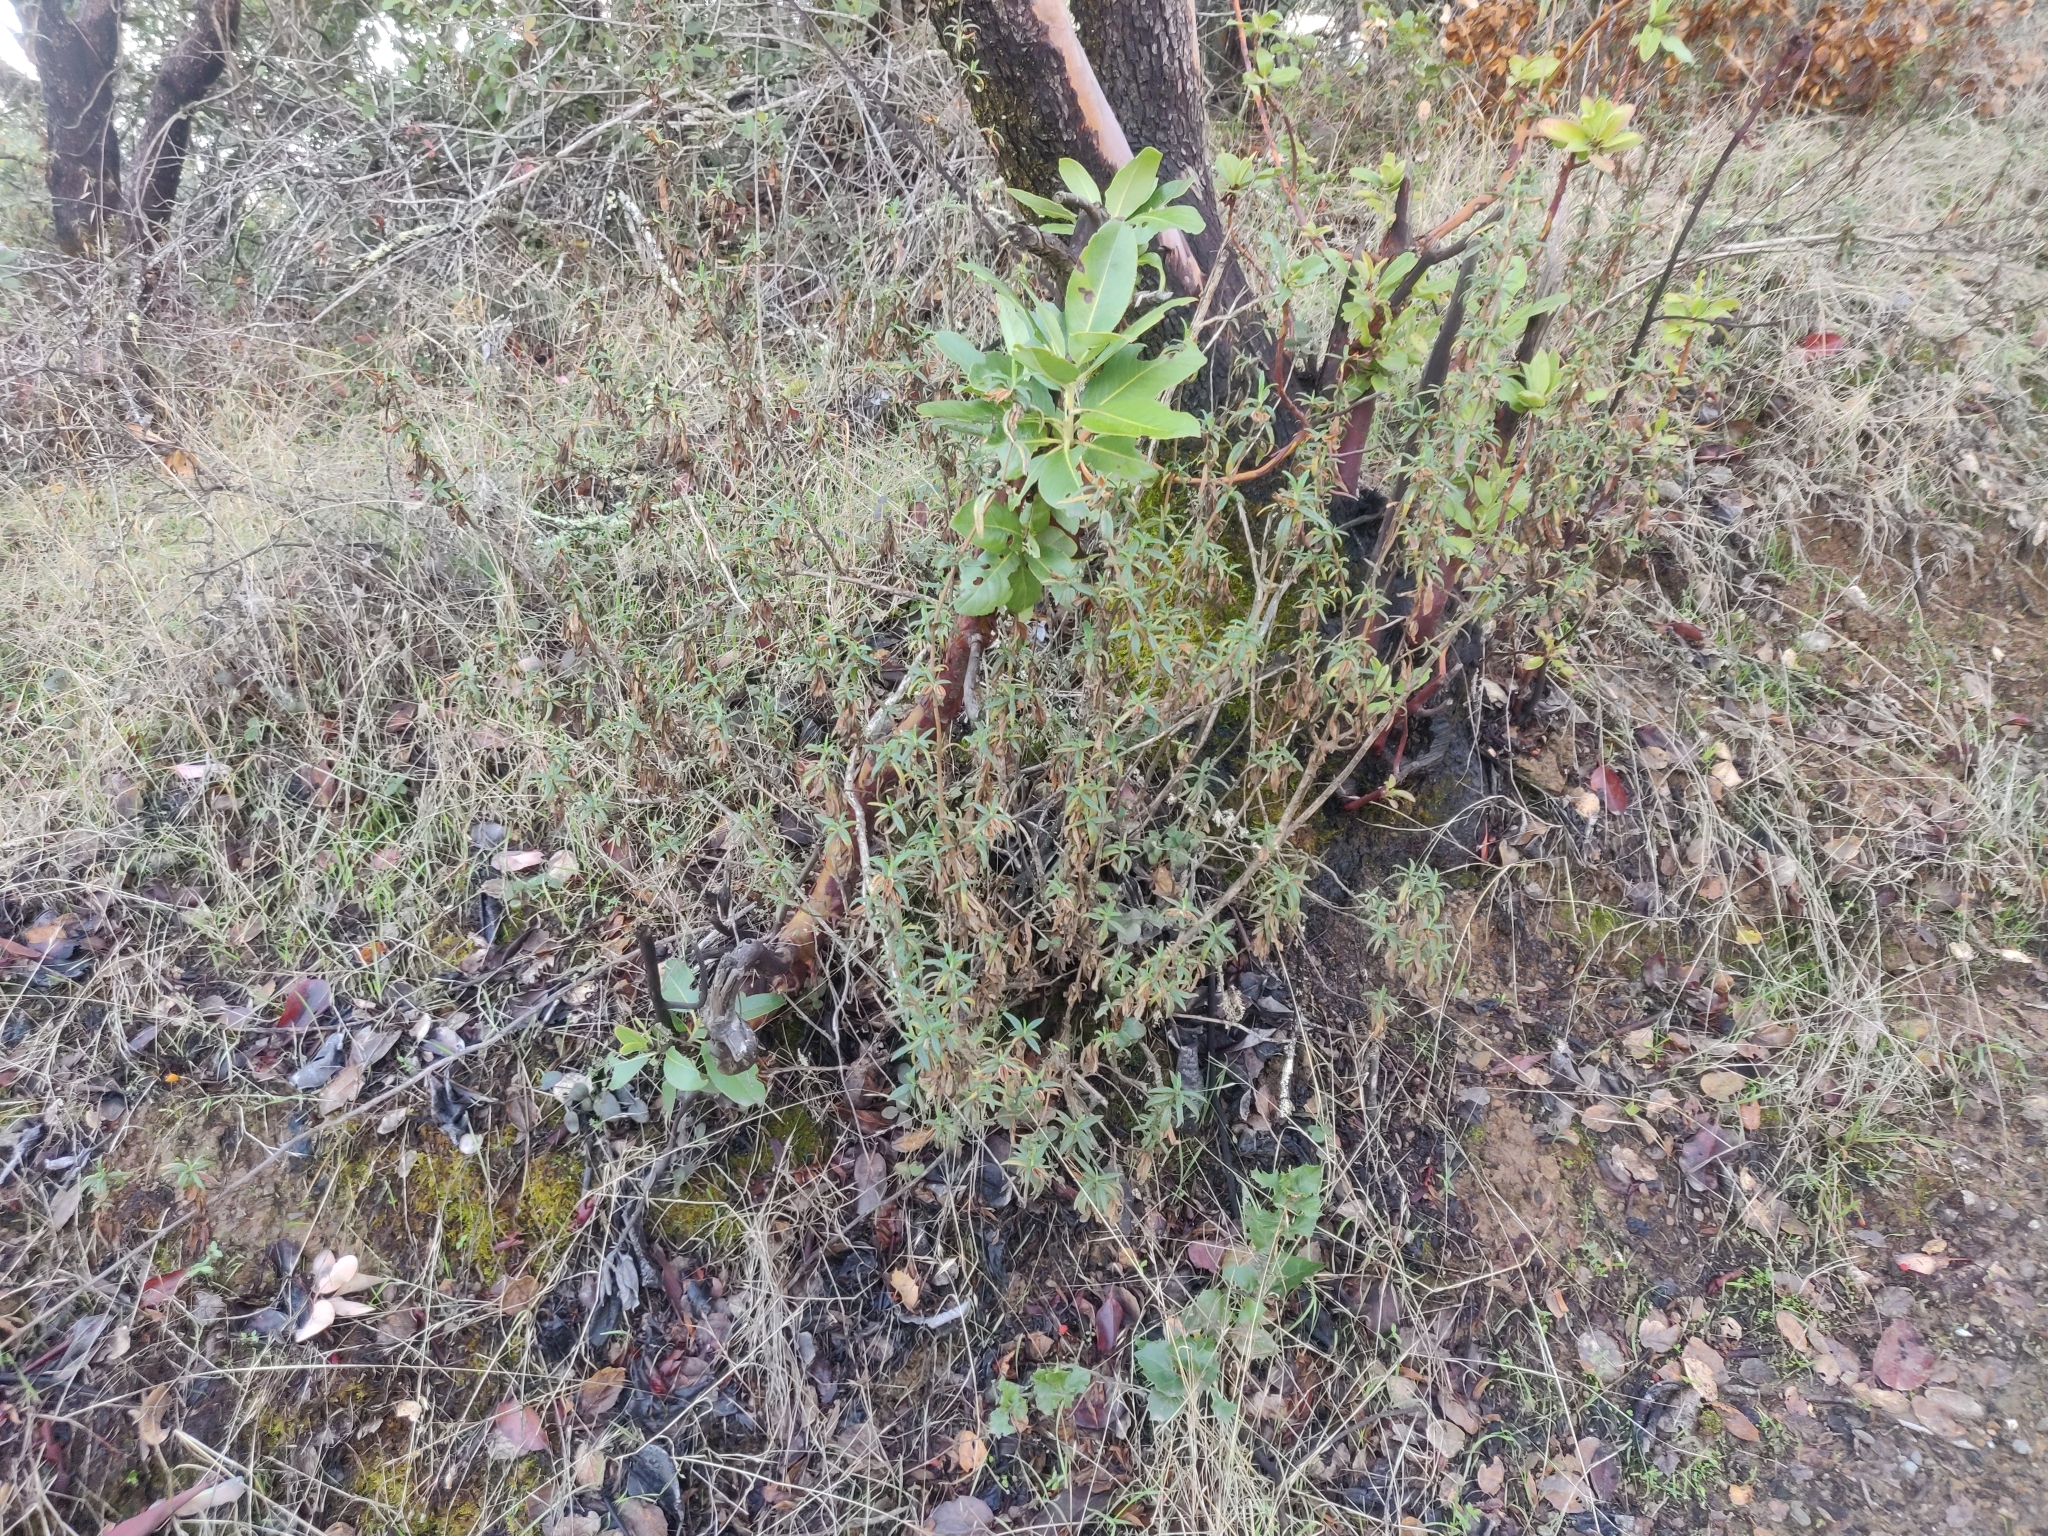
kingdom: Plantae
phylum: Tracheophyta
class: Magnoliopsida
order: Lamiales
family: Phrymaceae
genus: Diplacus
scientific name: Diplacus aurantiacus
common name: Bush monkey-flower
